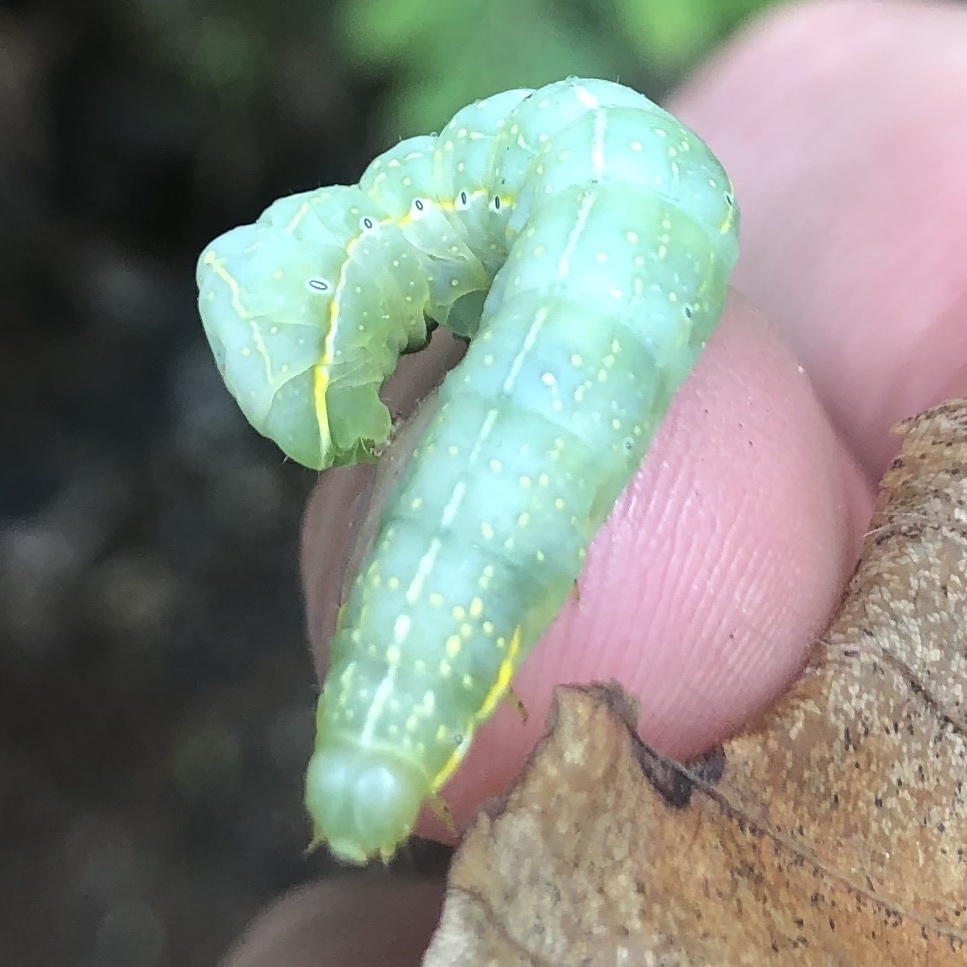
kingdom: Animalia
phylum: Arthropoda
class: Insecta
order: Lepidoptera
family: Noctuidae
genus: Amphipyra
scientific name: Amphipyra pyramidoides
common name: American copper underwing
